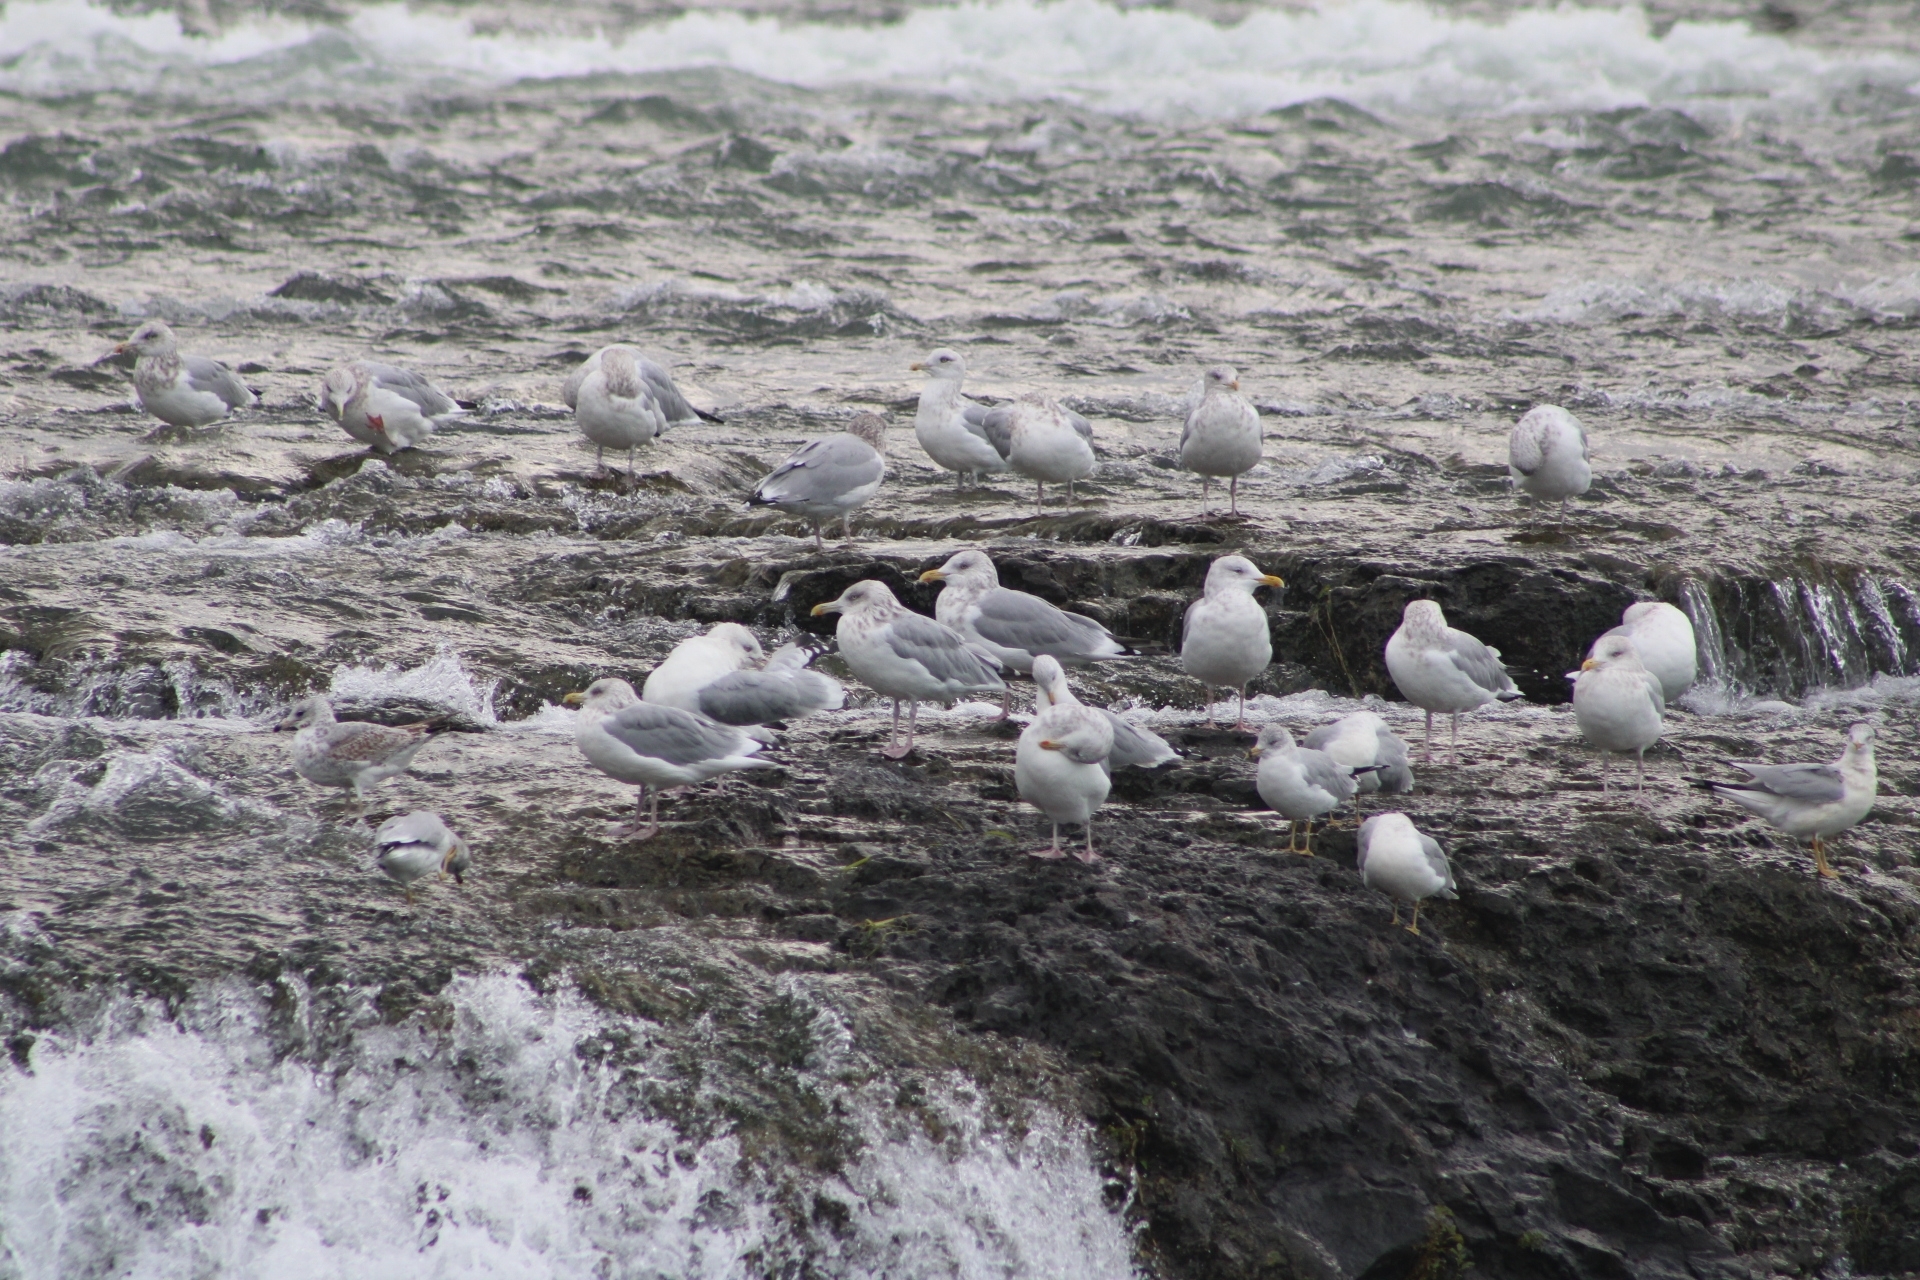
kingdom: Animalia
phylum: Chordata
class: Aves
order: Charadriiformes
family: Laridae
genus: Larus
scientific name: Larus argentatus
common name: Herring gull
